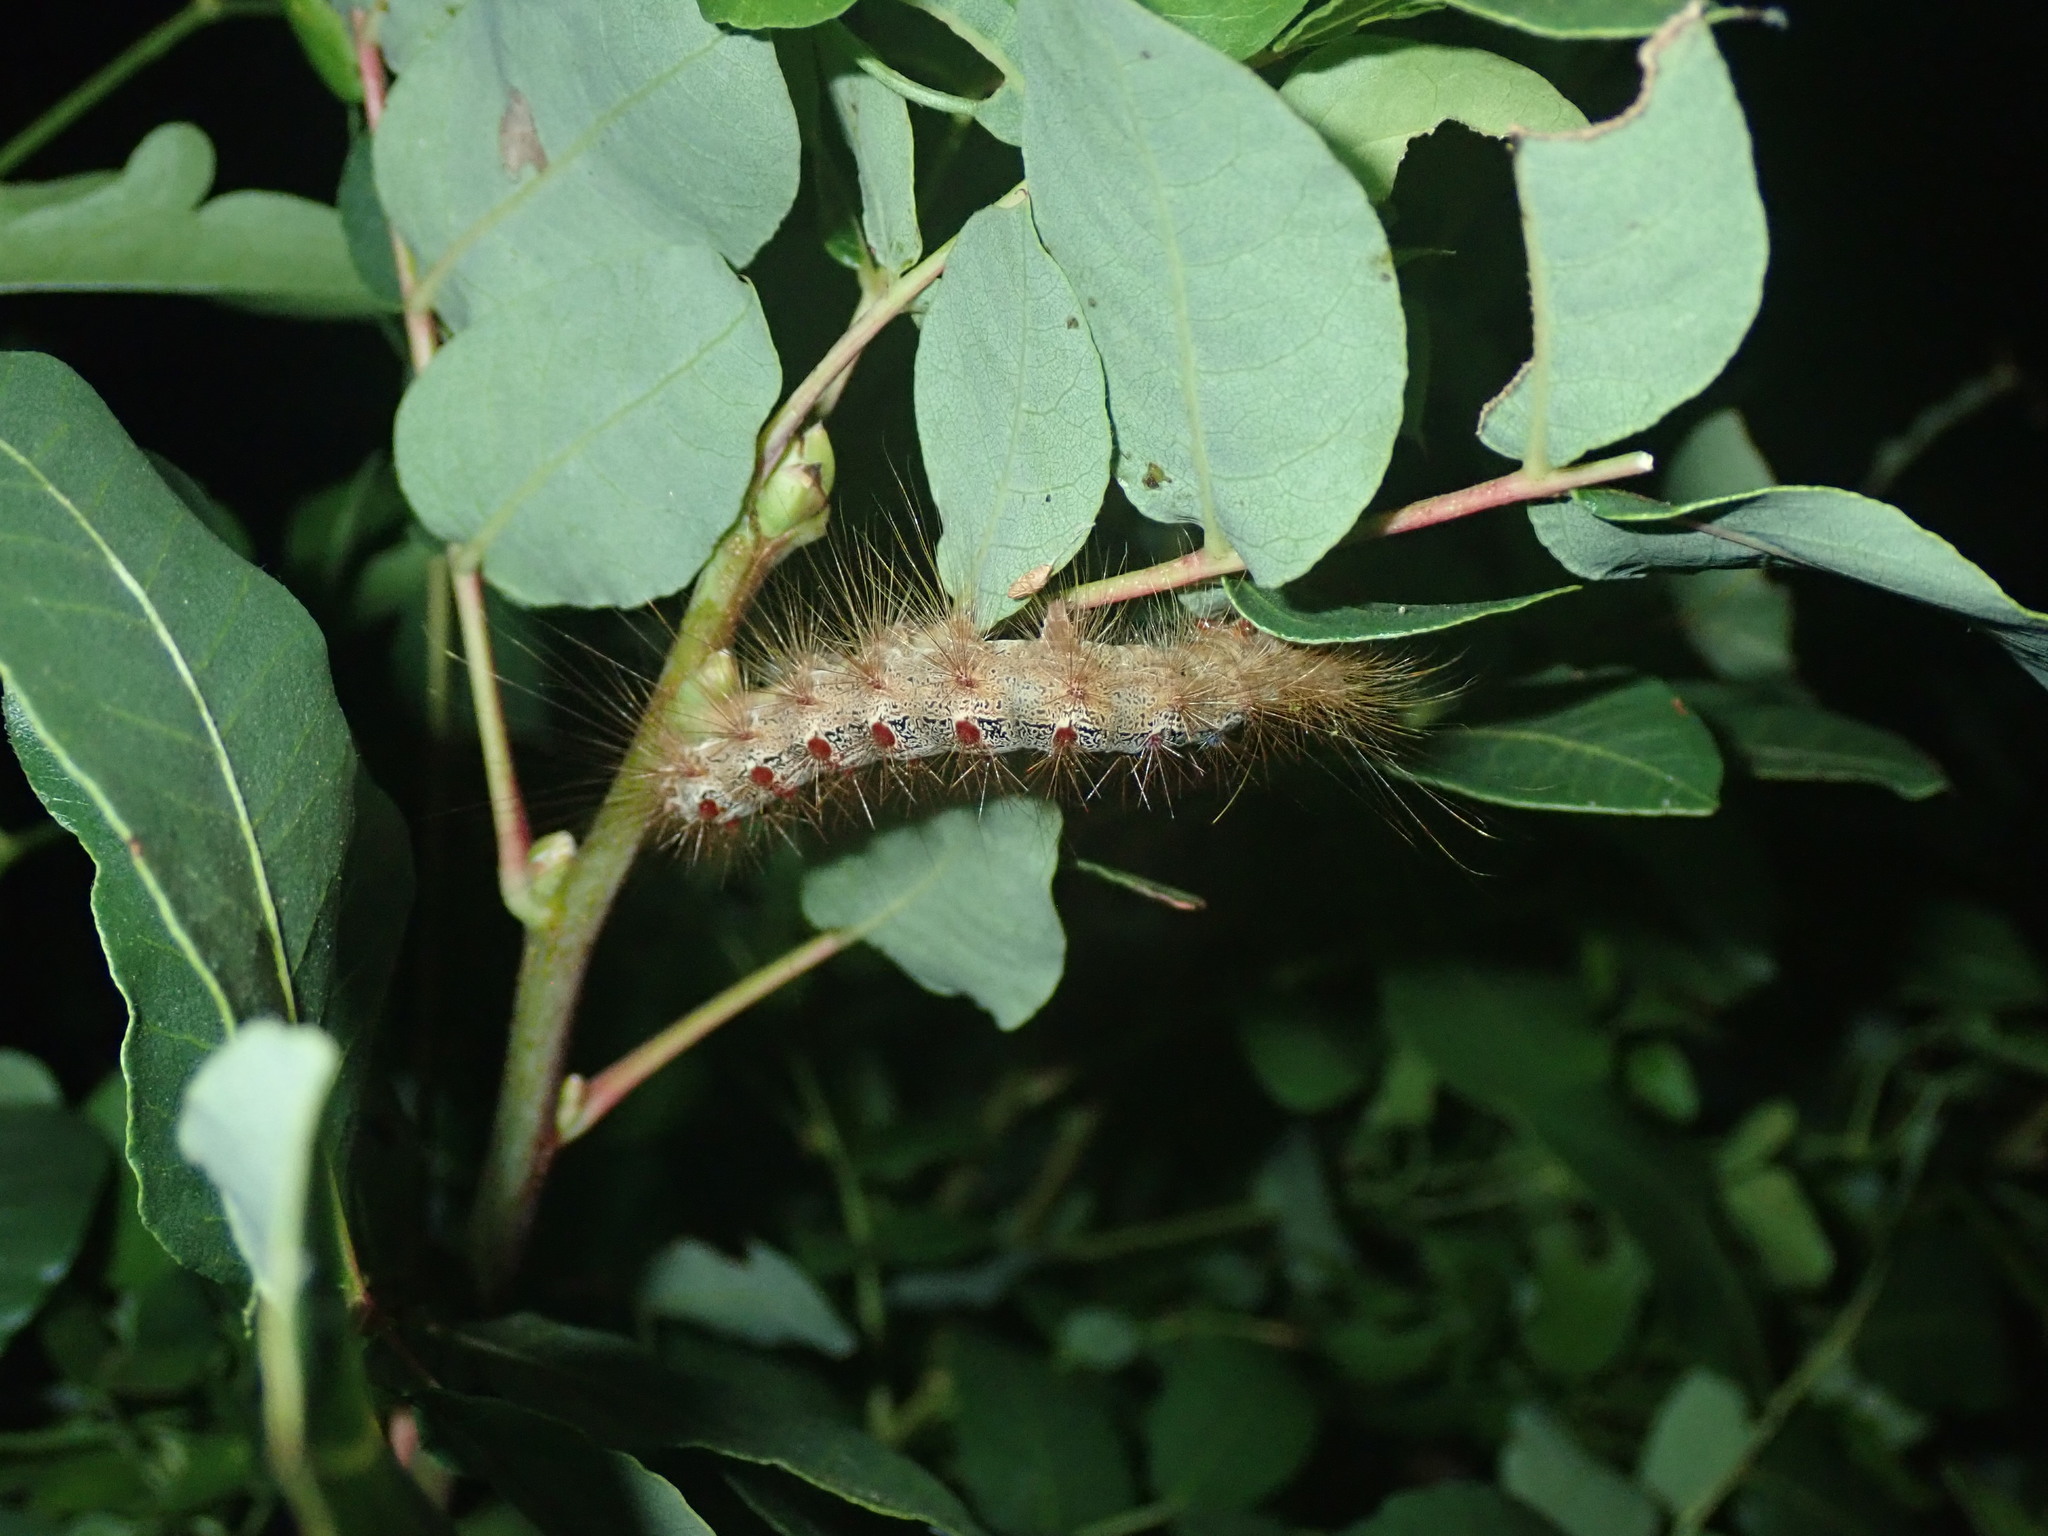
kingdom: Animalia
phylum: Arthropoda
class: Insecta
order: Lepidoptera
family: Erebidae
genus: Lymantria
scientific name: Lymantria dispar
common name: Gypsy moth
